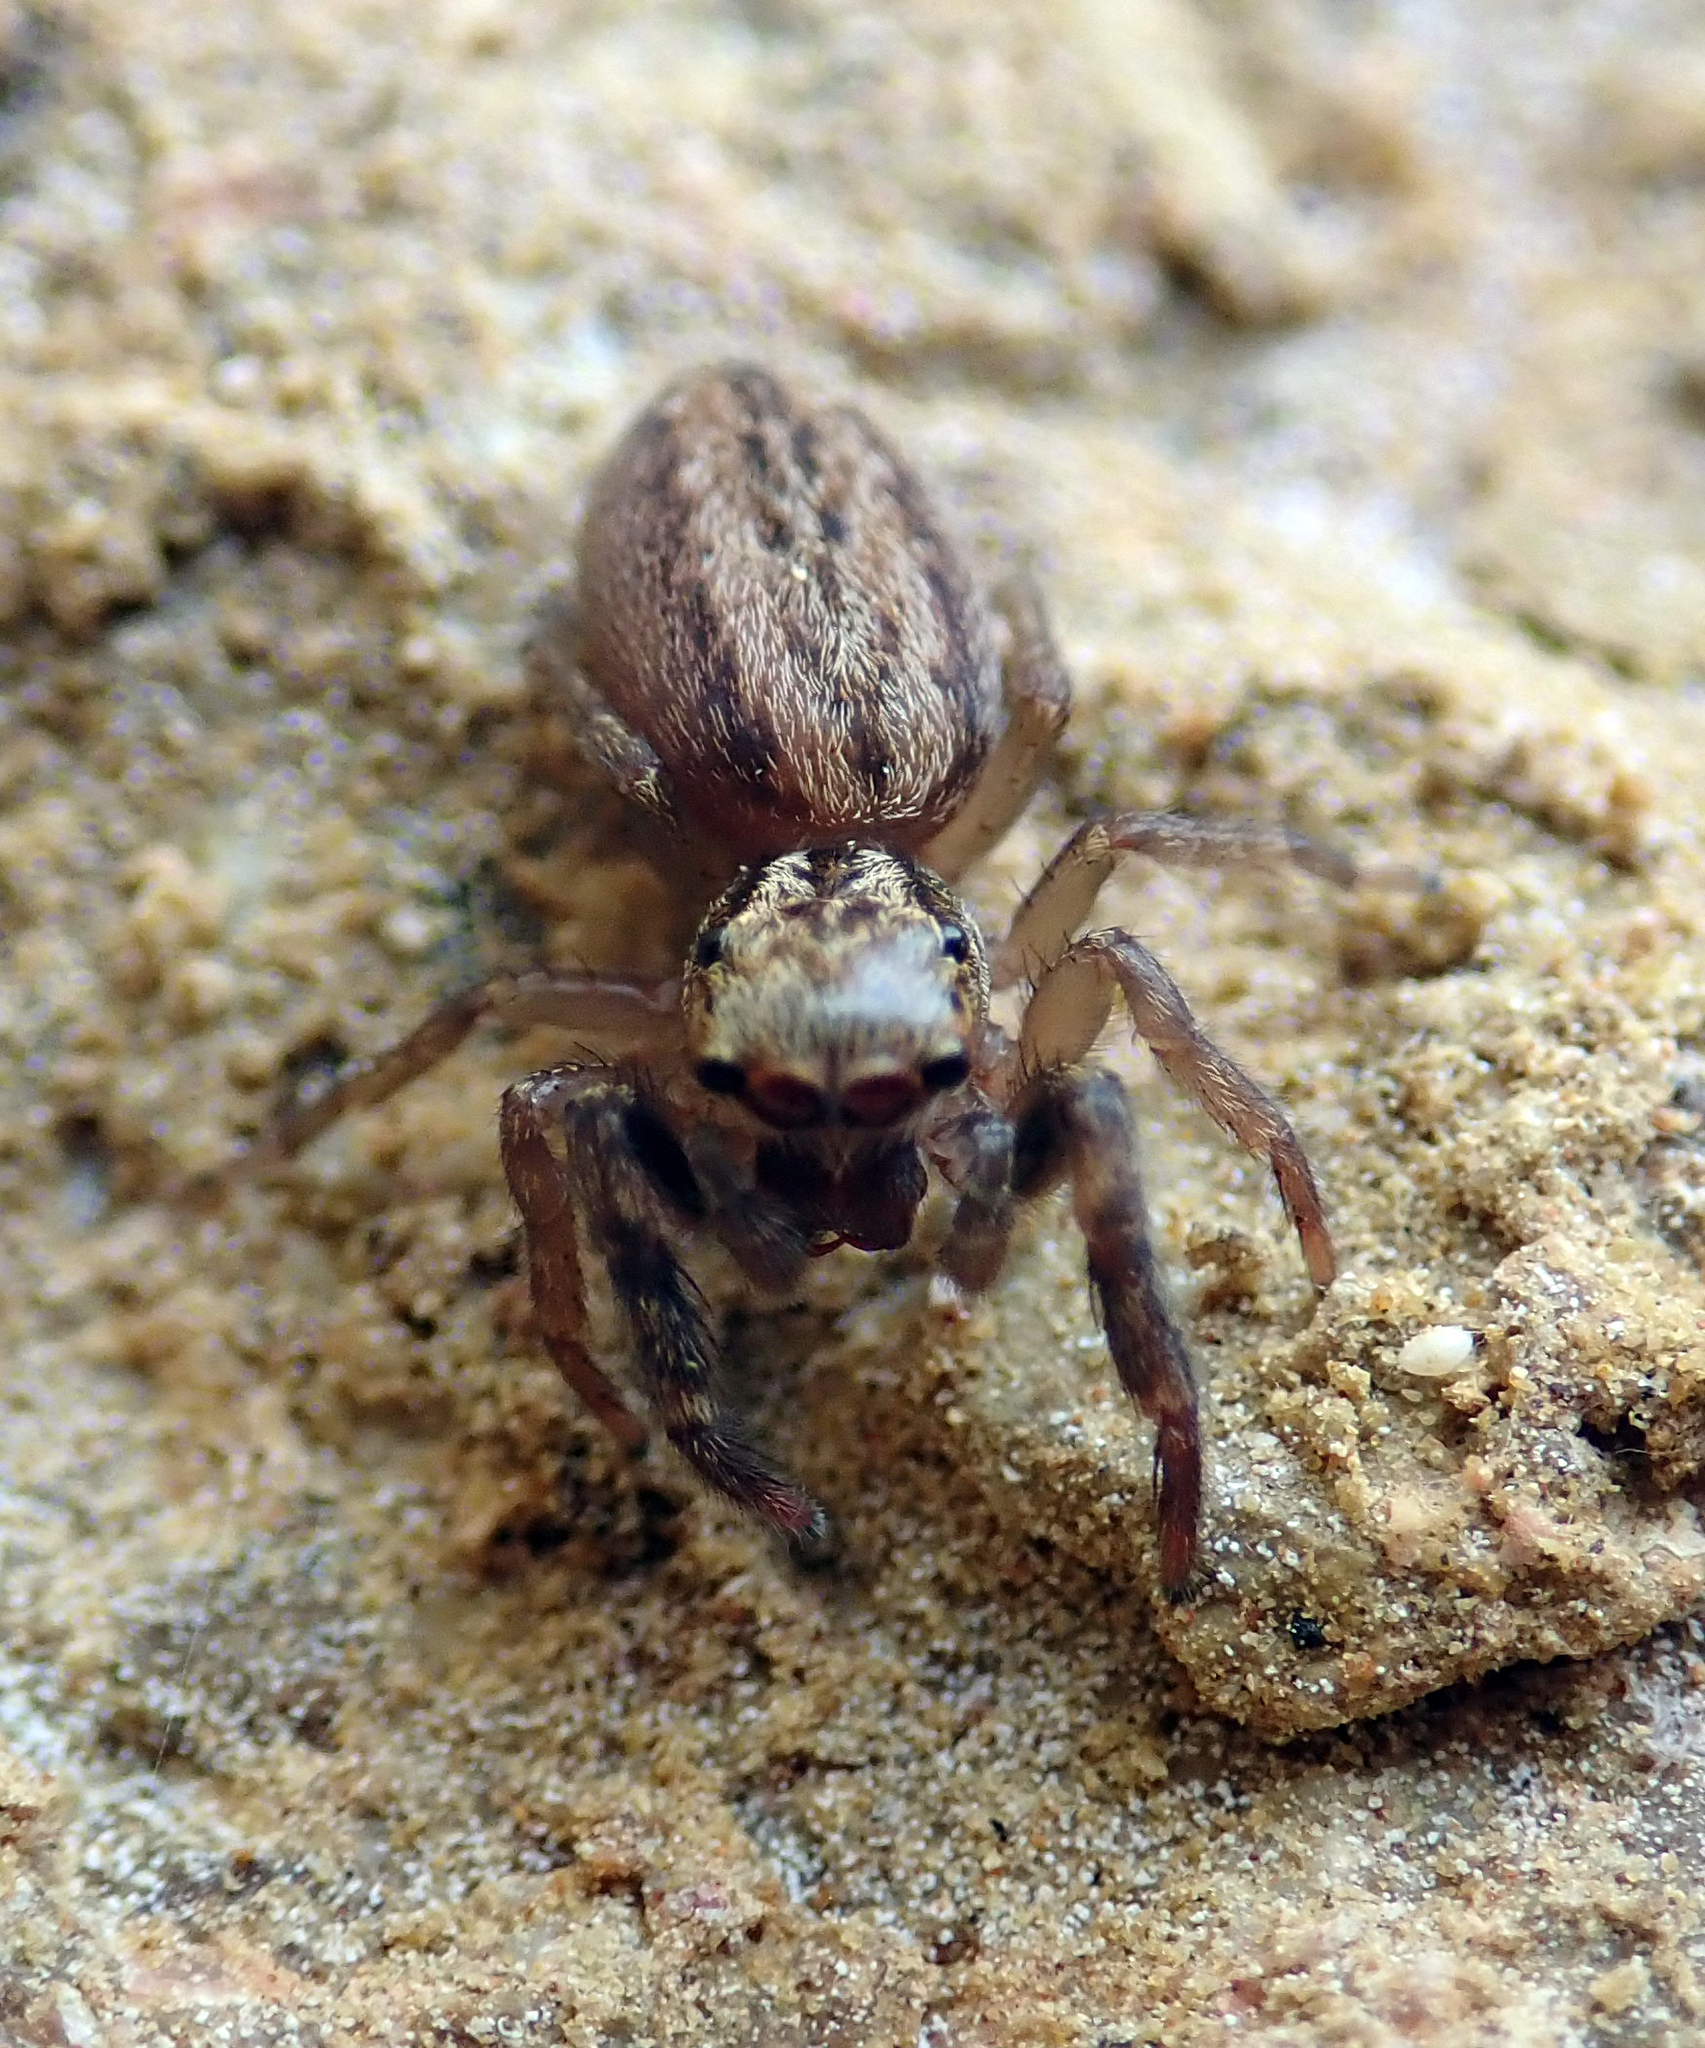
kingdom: Animalia
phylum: Arthropoda
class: Arachnida
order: Araneae
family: Salticidae
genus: Trite
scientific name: Trite auricoma
